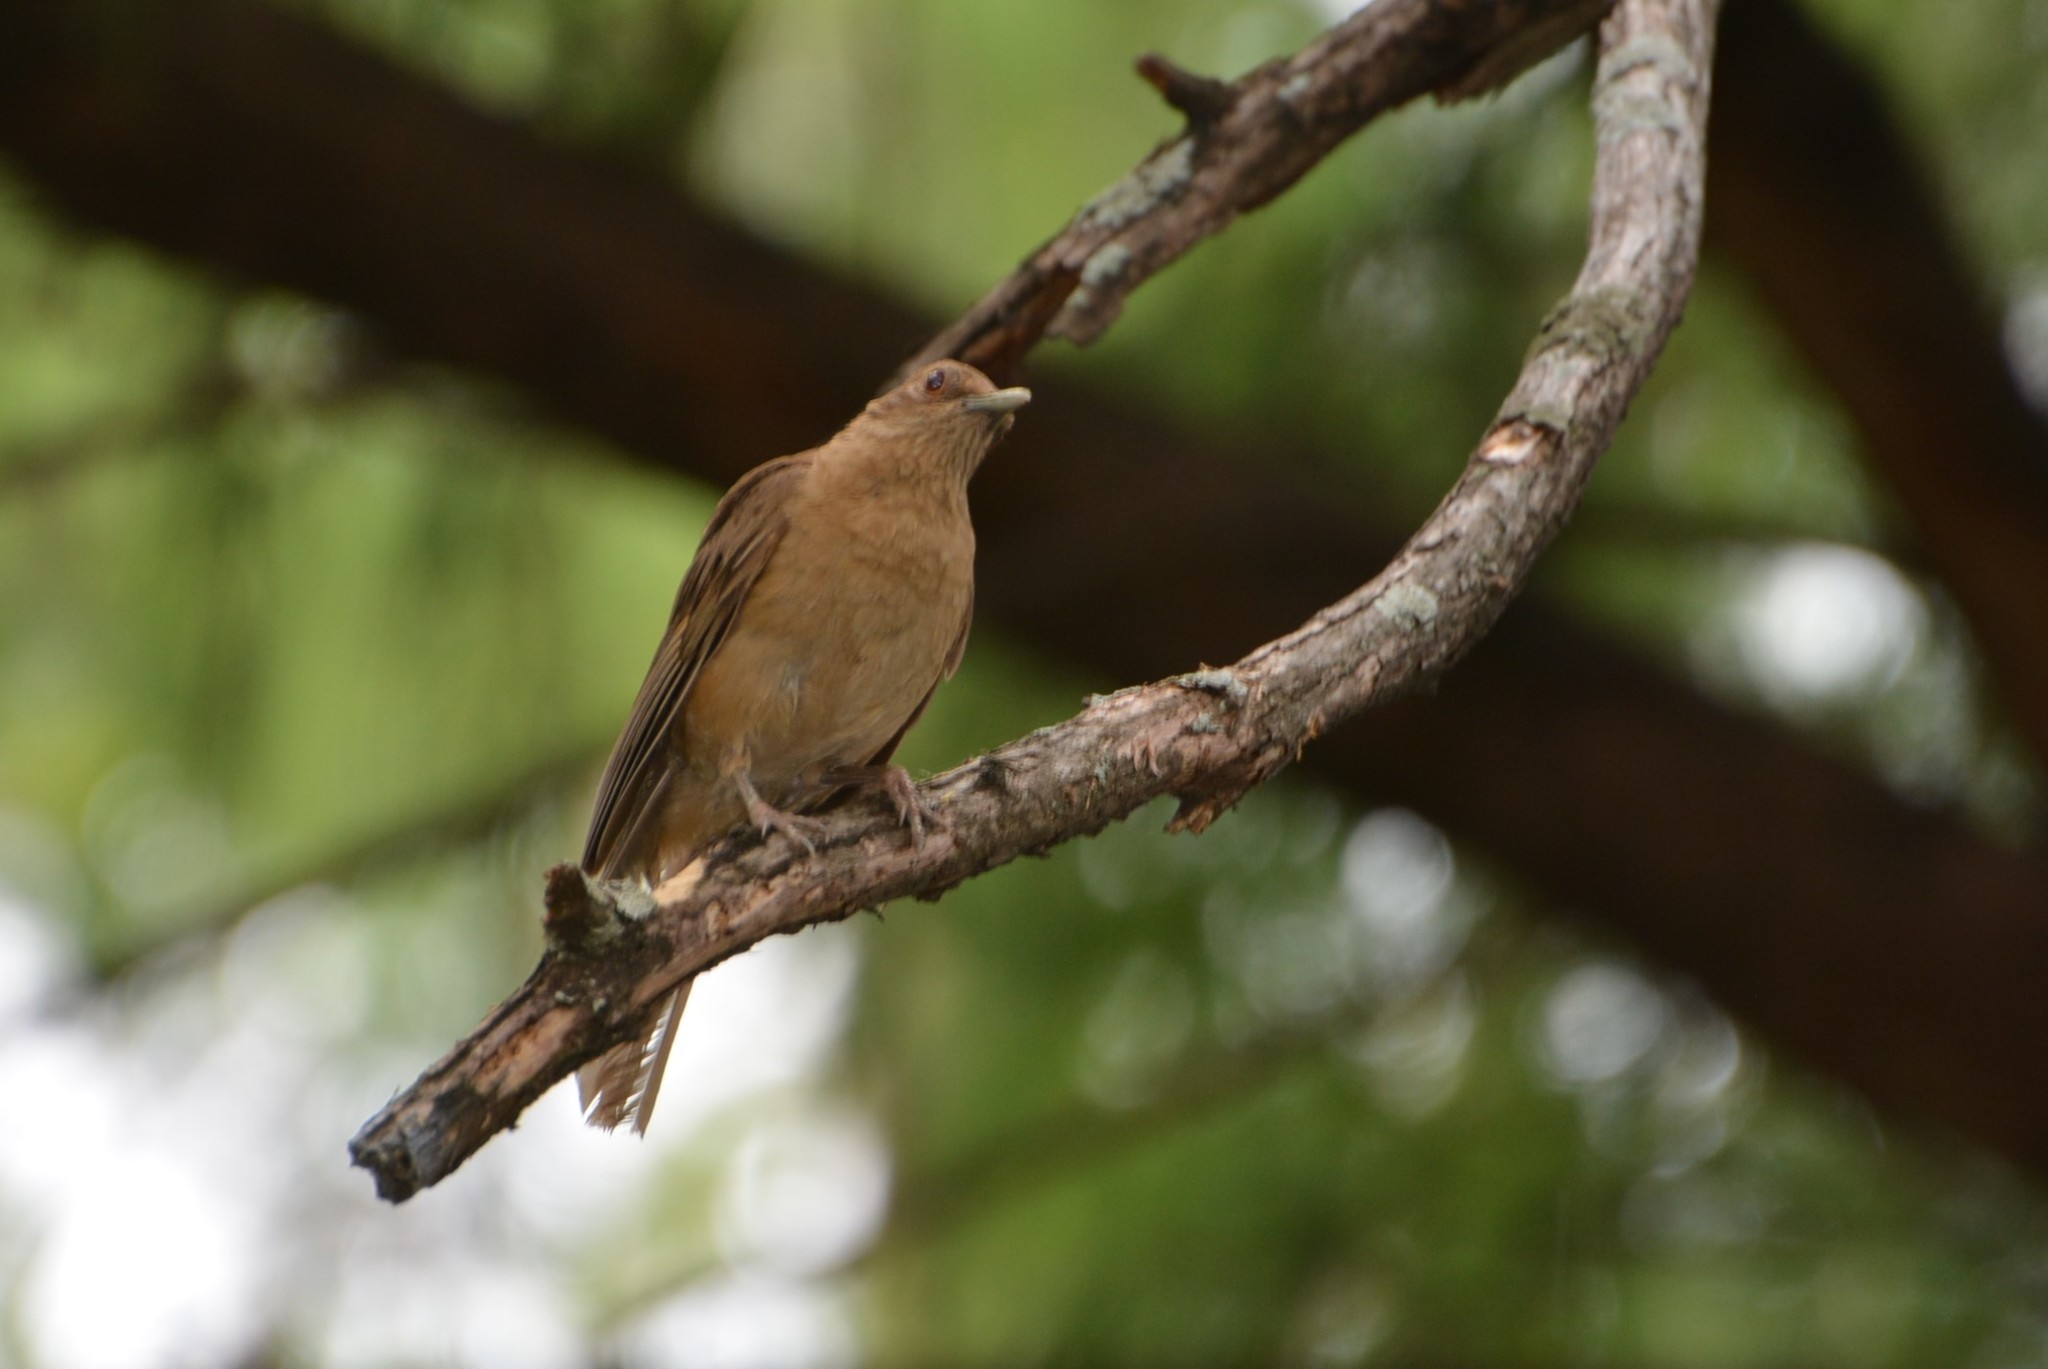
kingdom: Animalia
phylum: Chordata
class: Aves
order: Passeriformes
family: Turdidae
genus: Turdus
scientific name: Turdus grayi
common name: Clay-colored thrush
